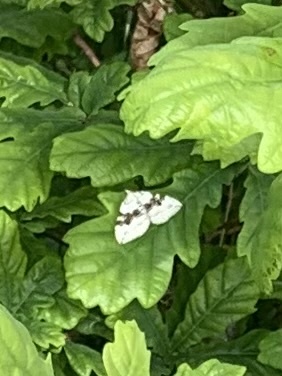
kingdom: Animalia
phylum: Arthropoda
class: Insecta
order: Lepidoptera
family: Geometridae
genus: Xanthorhoe
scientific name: Xanthorhoe montanata
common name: Silver-ground carpet
